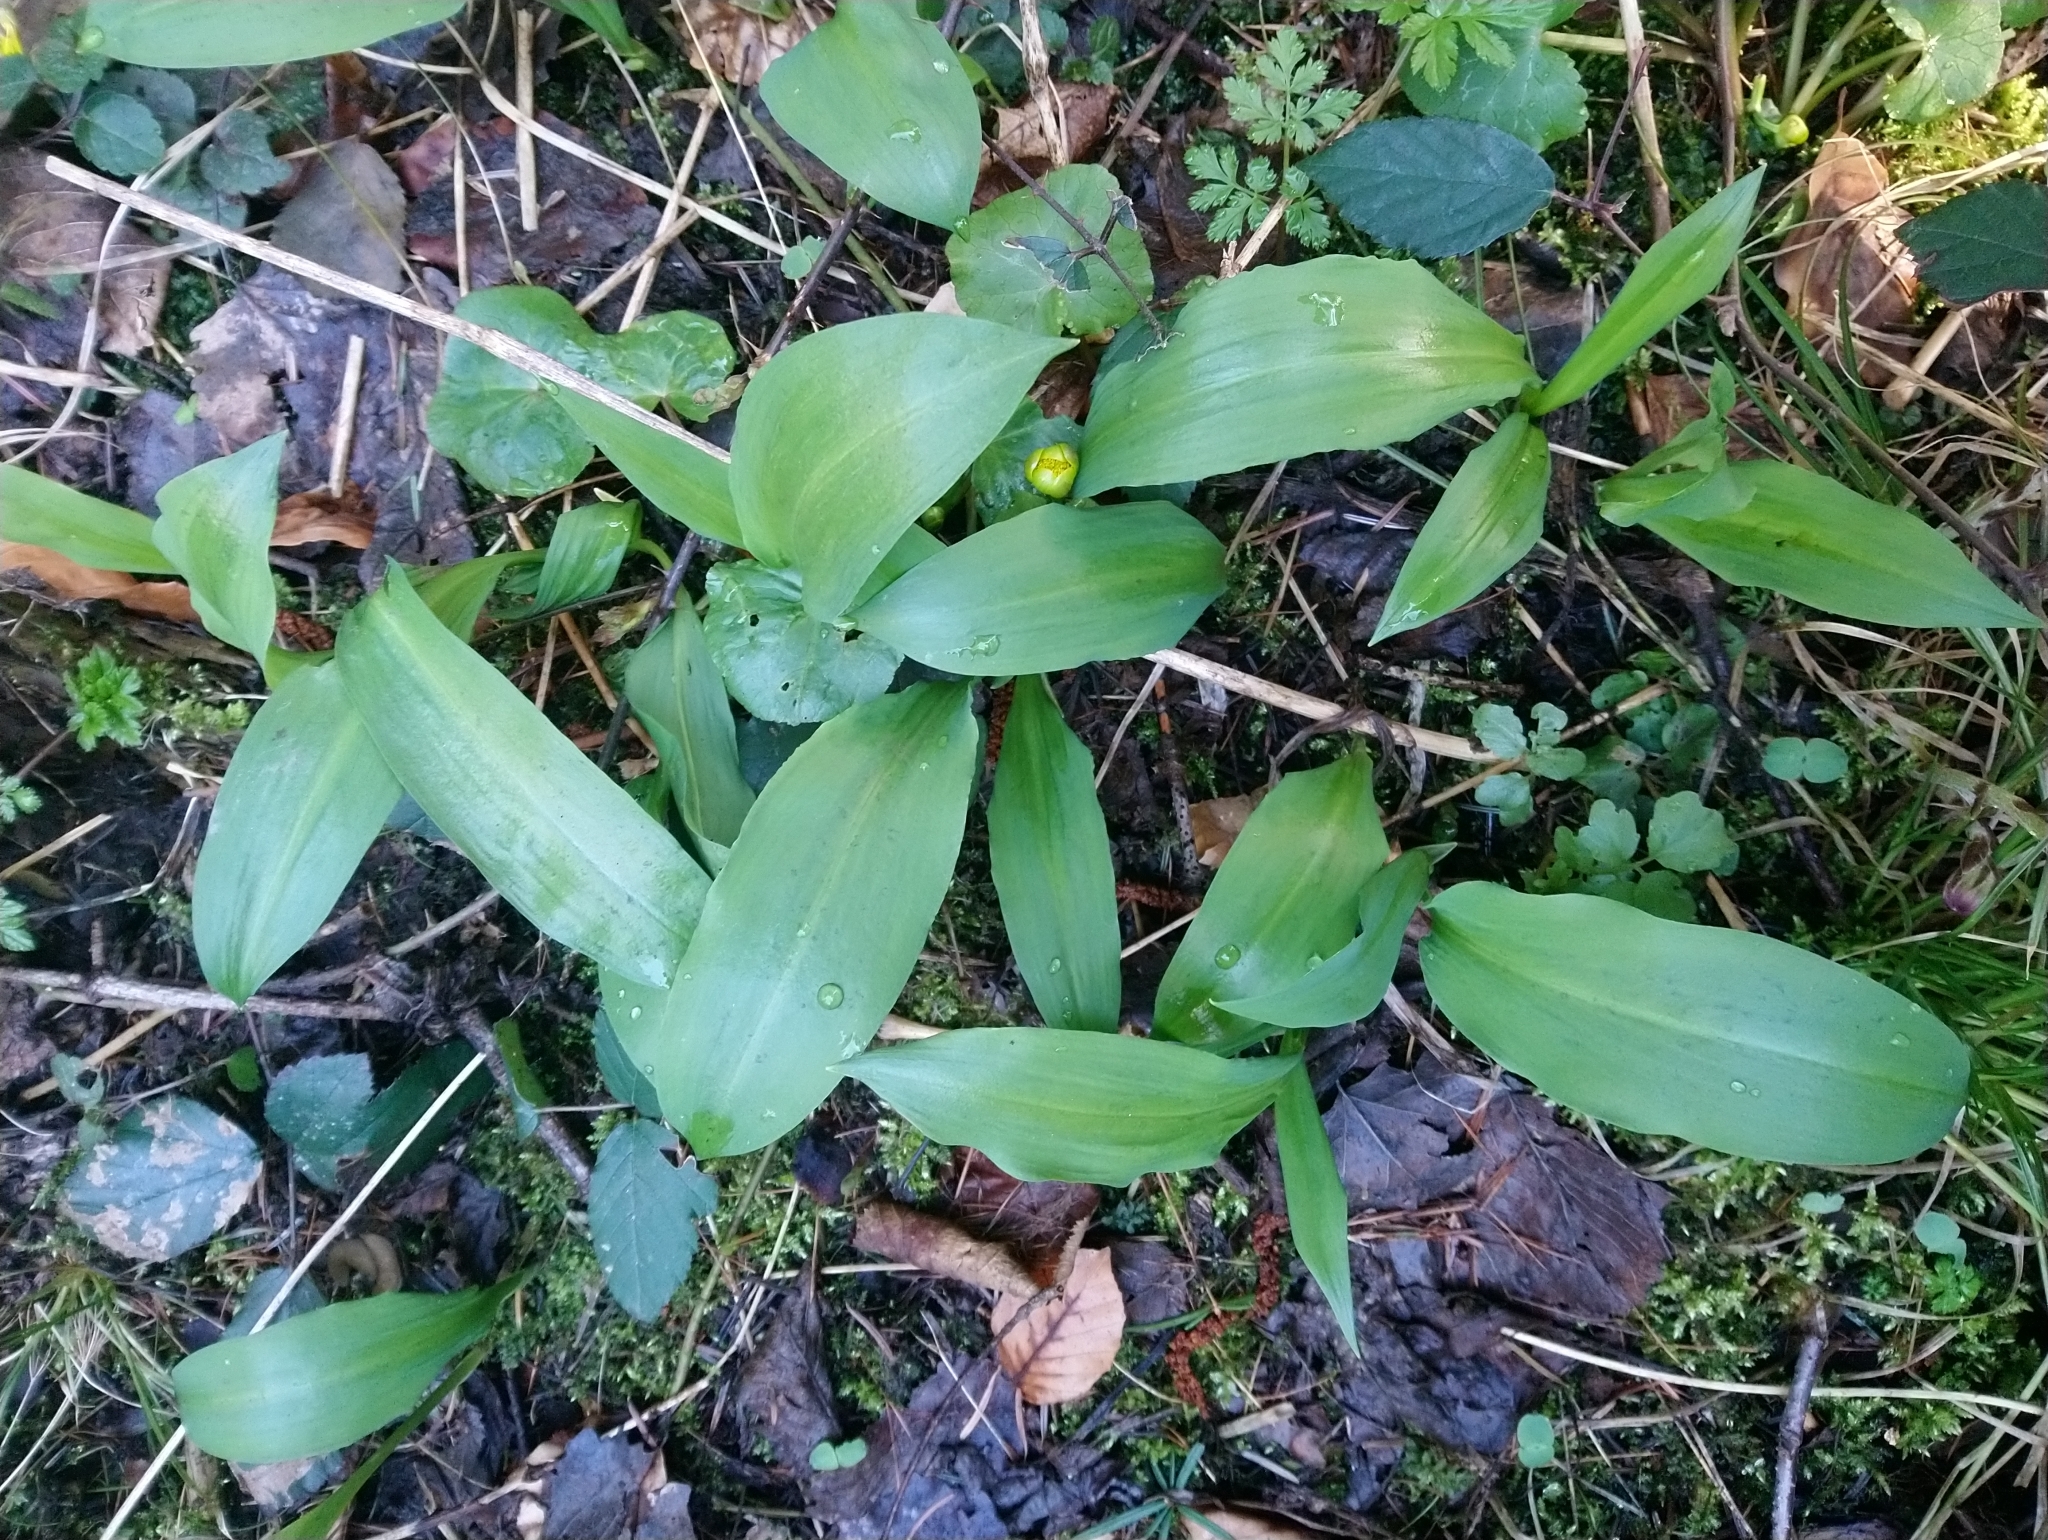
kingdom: Plantae
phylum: Tracheophyta
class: Liliopsida
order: Asparagales
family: Amaryllidaceae
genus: Allium
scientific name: Allium ursinum
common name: Ramsons
